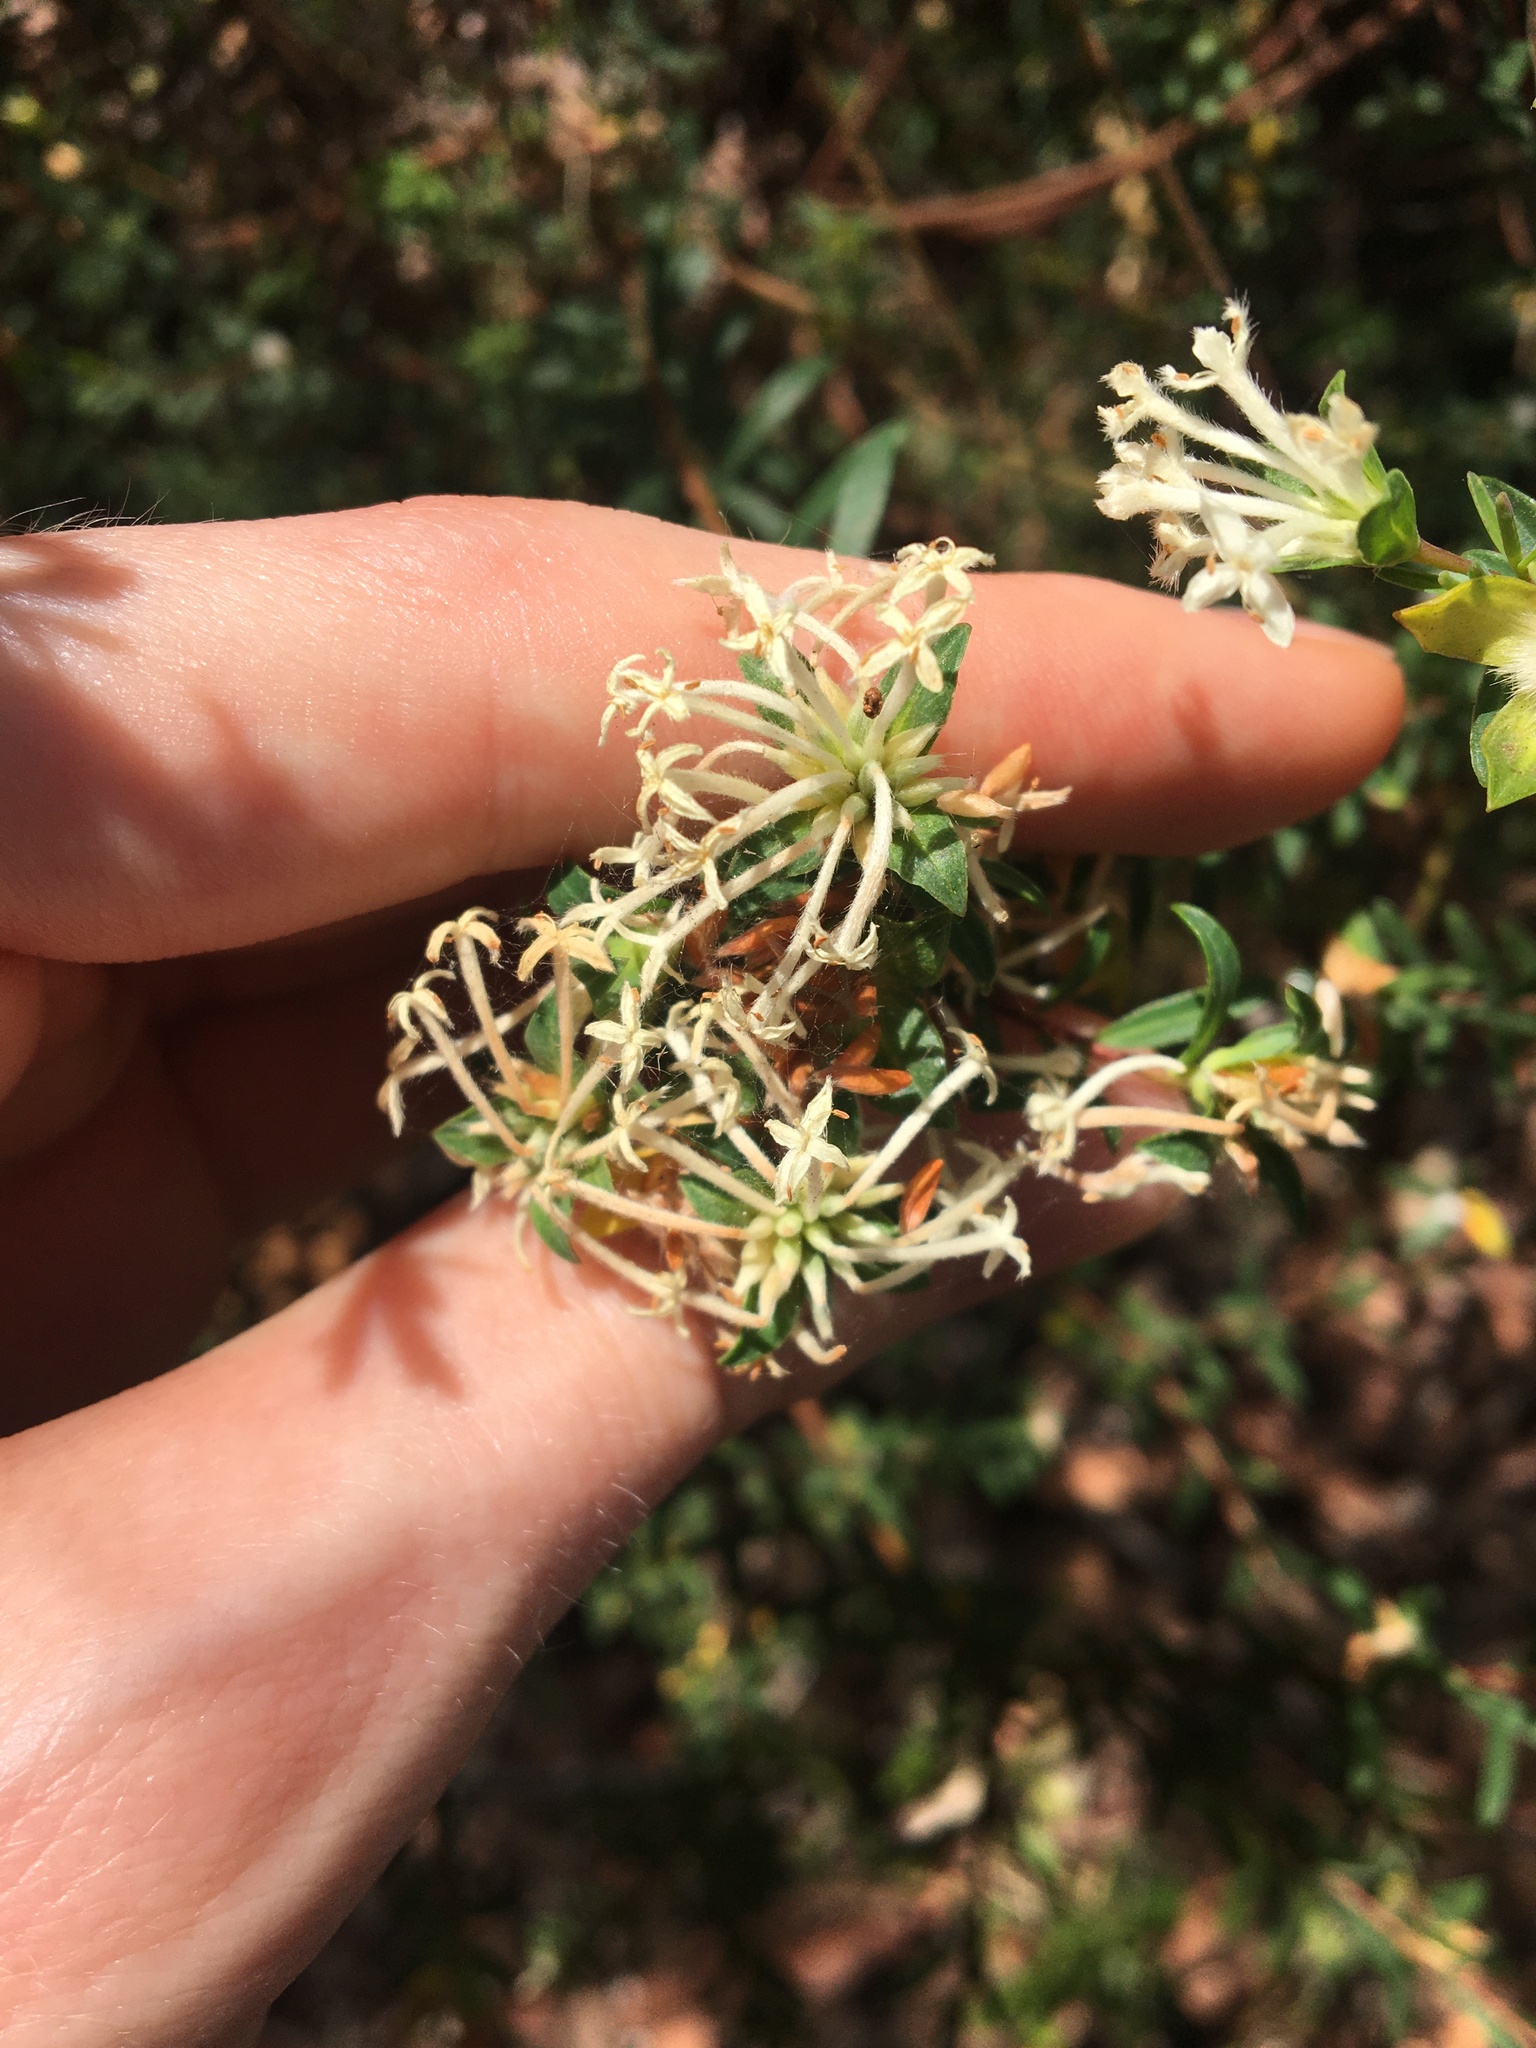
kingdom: Plantae
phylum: Tracheophyta
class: Magnoliopsida
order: Malvales
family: Thymelaeaceae
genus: Pimelea
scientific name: Pimelea linifolia
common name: Queen-of-the-bush
